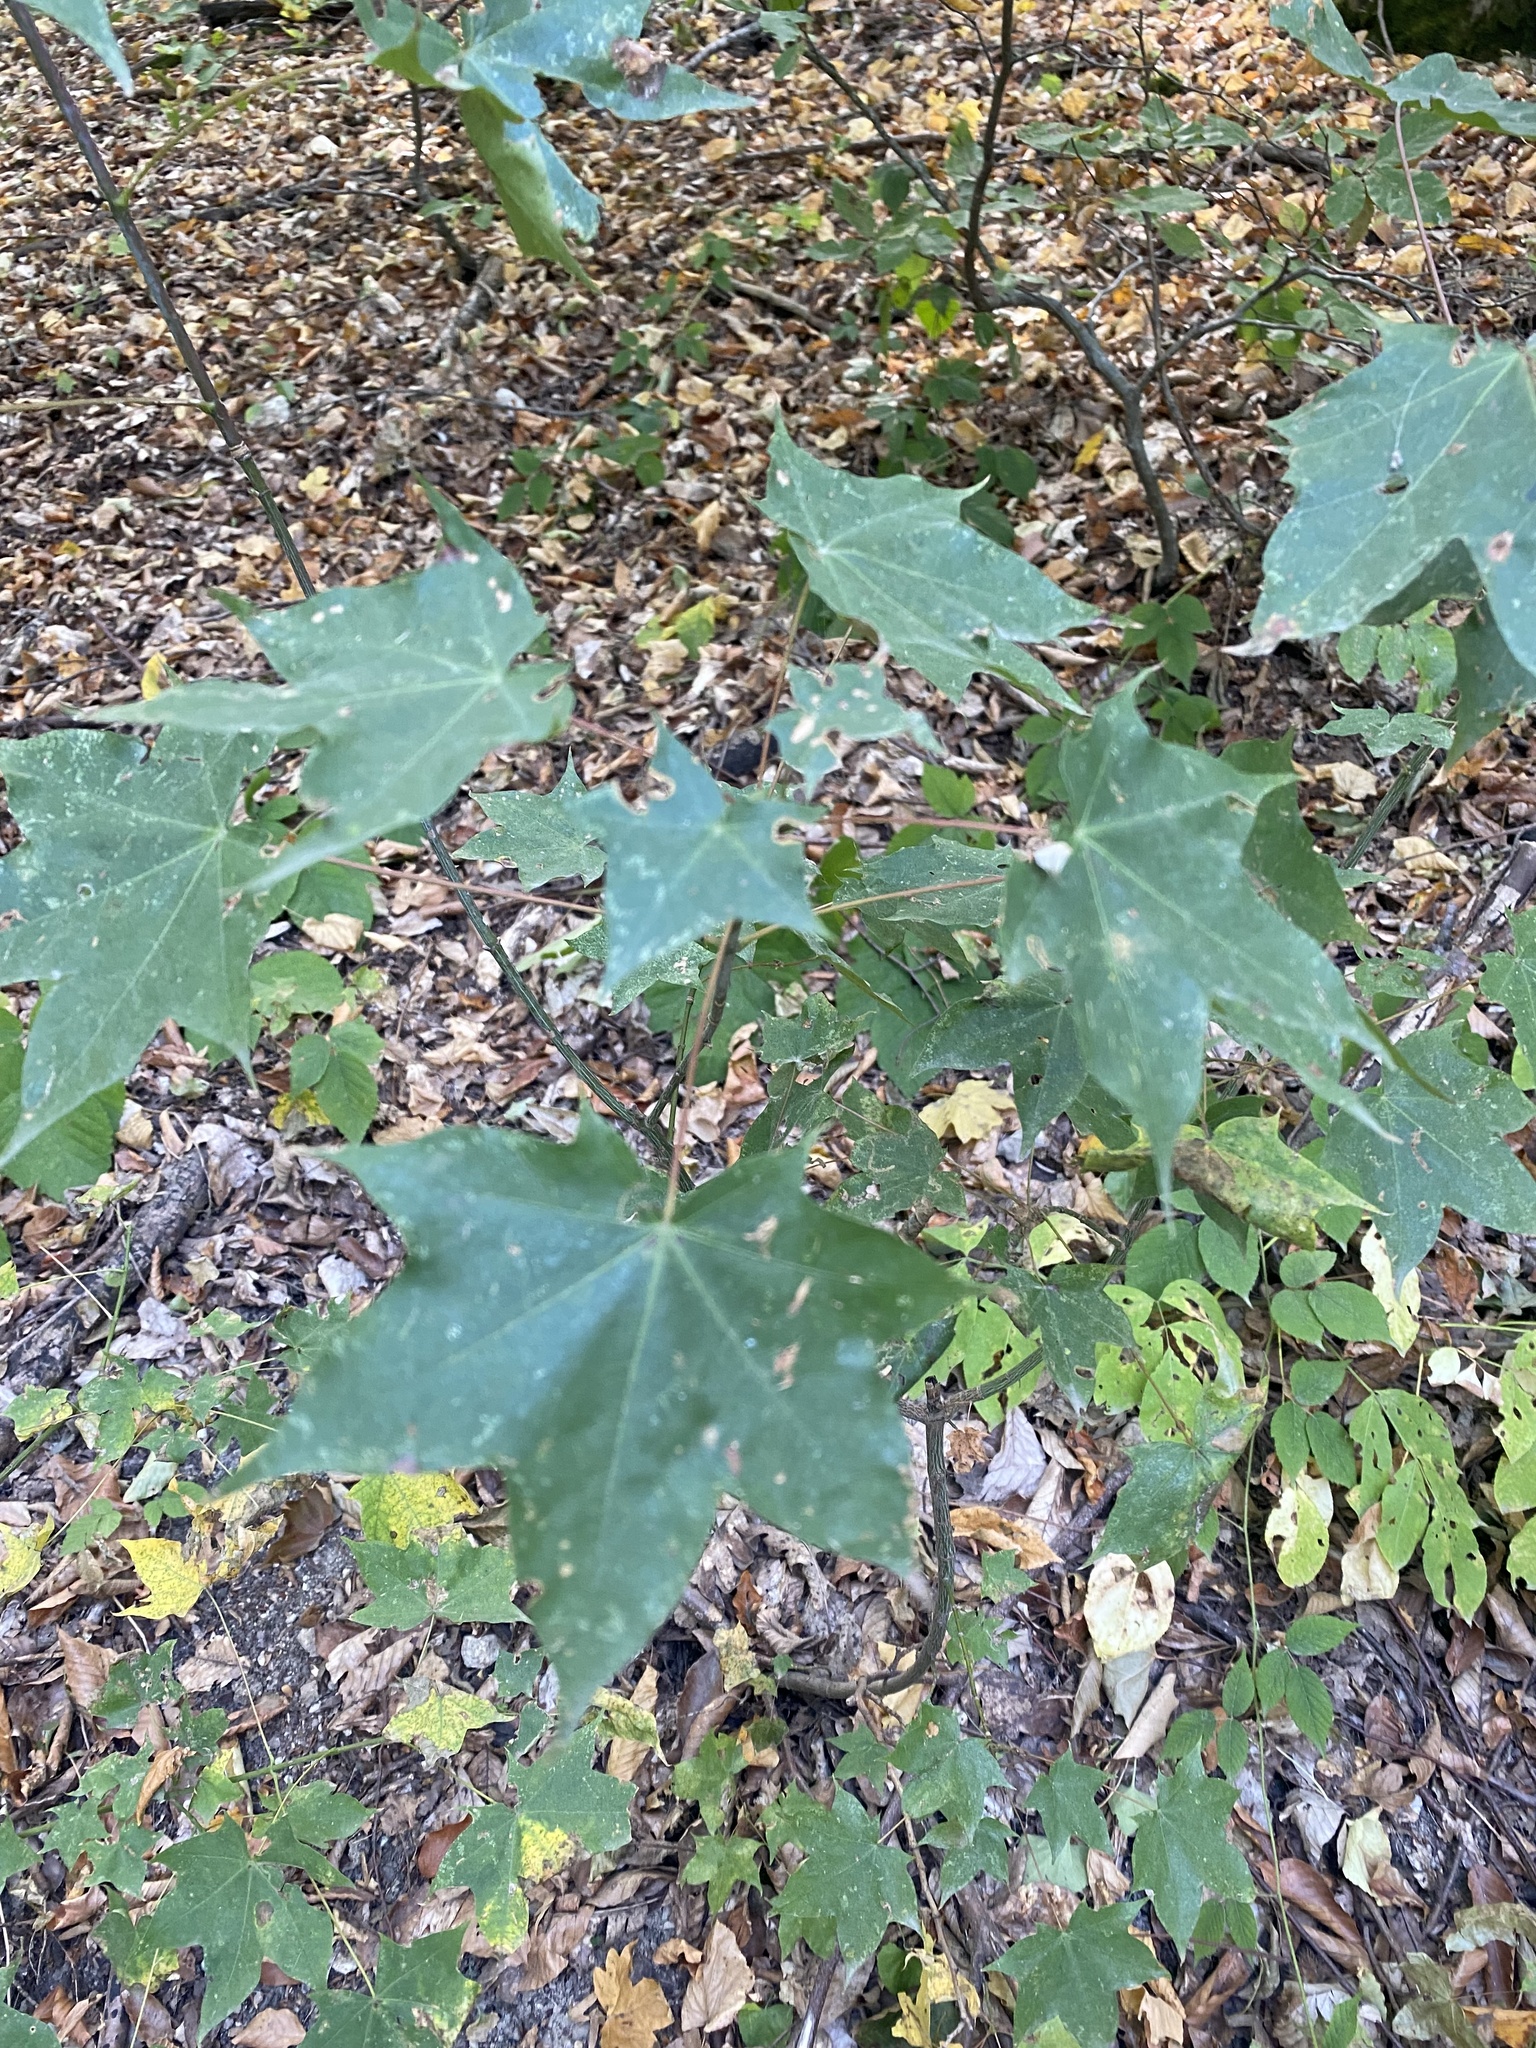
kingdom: Plantae
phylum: Tracheophyta
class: Magnoliopsida
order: Sapindales
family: Sapindaceae
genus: Acer
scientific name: Acer cappadocicum
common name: Cappadocian maple
